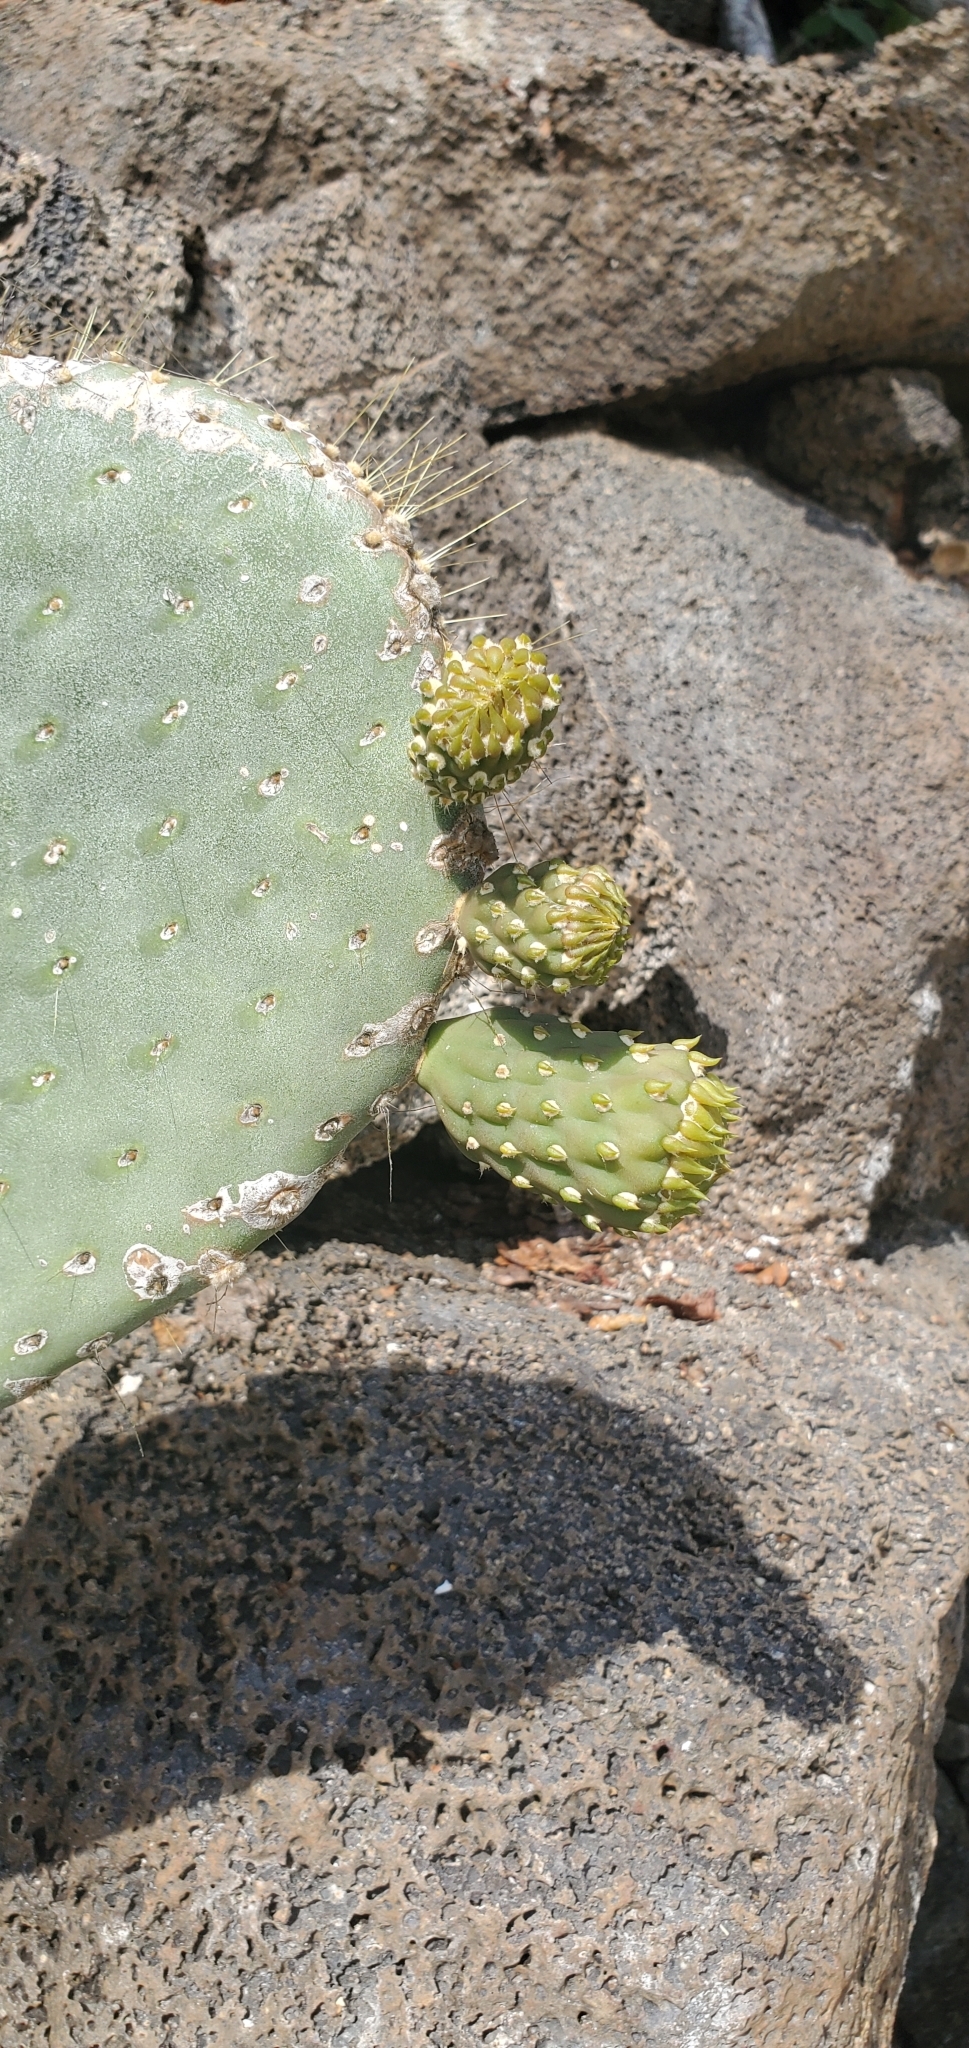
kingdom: Plantae
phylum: Tracheophyta
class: Magnoliopsida
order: Caryophyllales
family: Cactaceae
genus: Opuntia
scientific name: Opuntia galapageia
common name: Galápagos prickly pear
